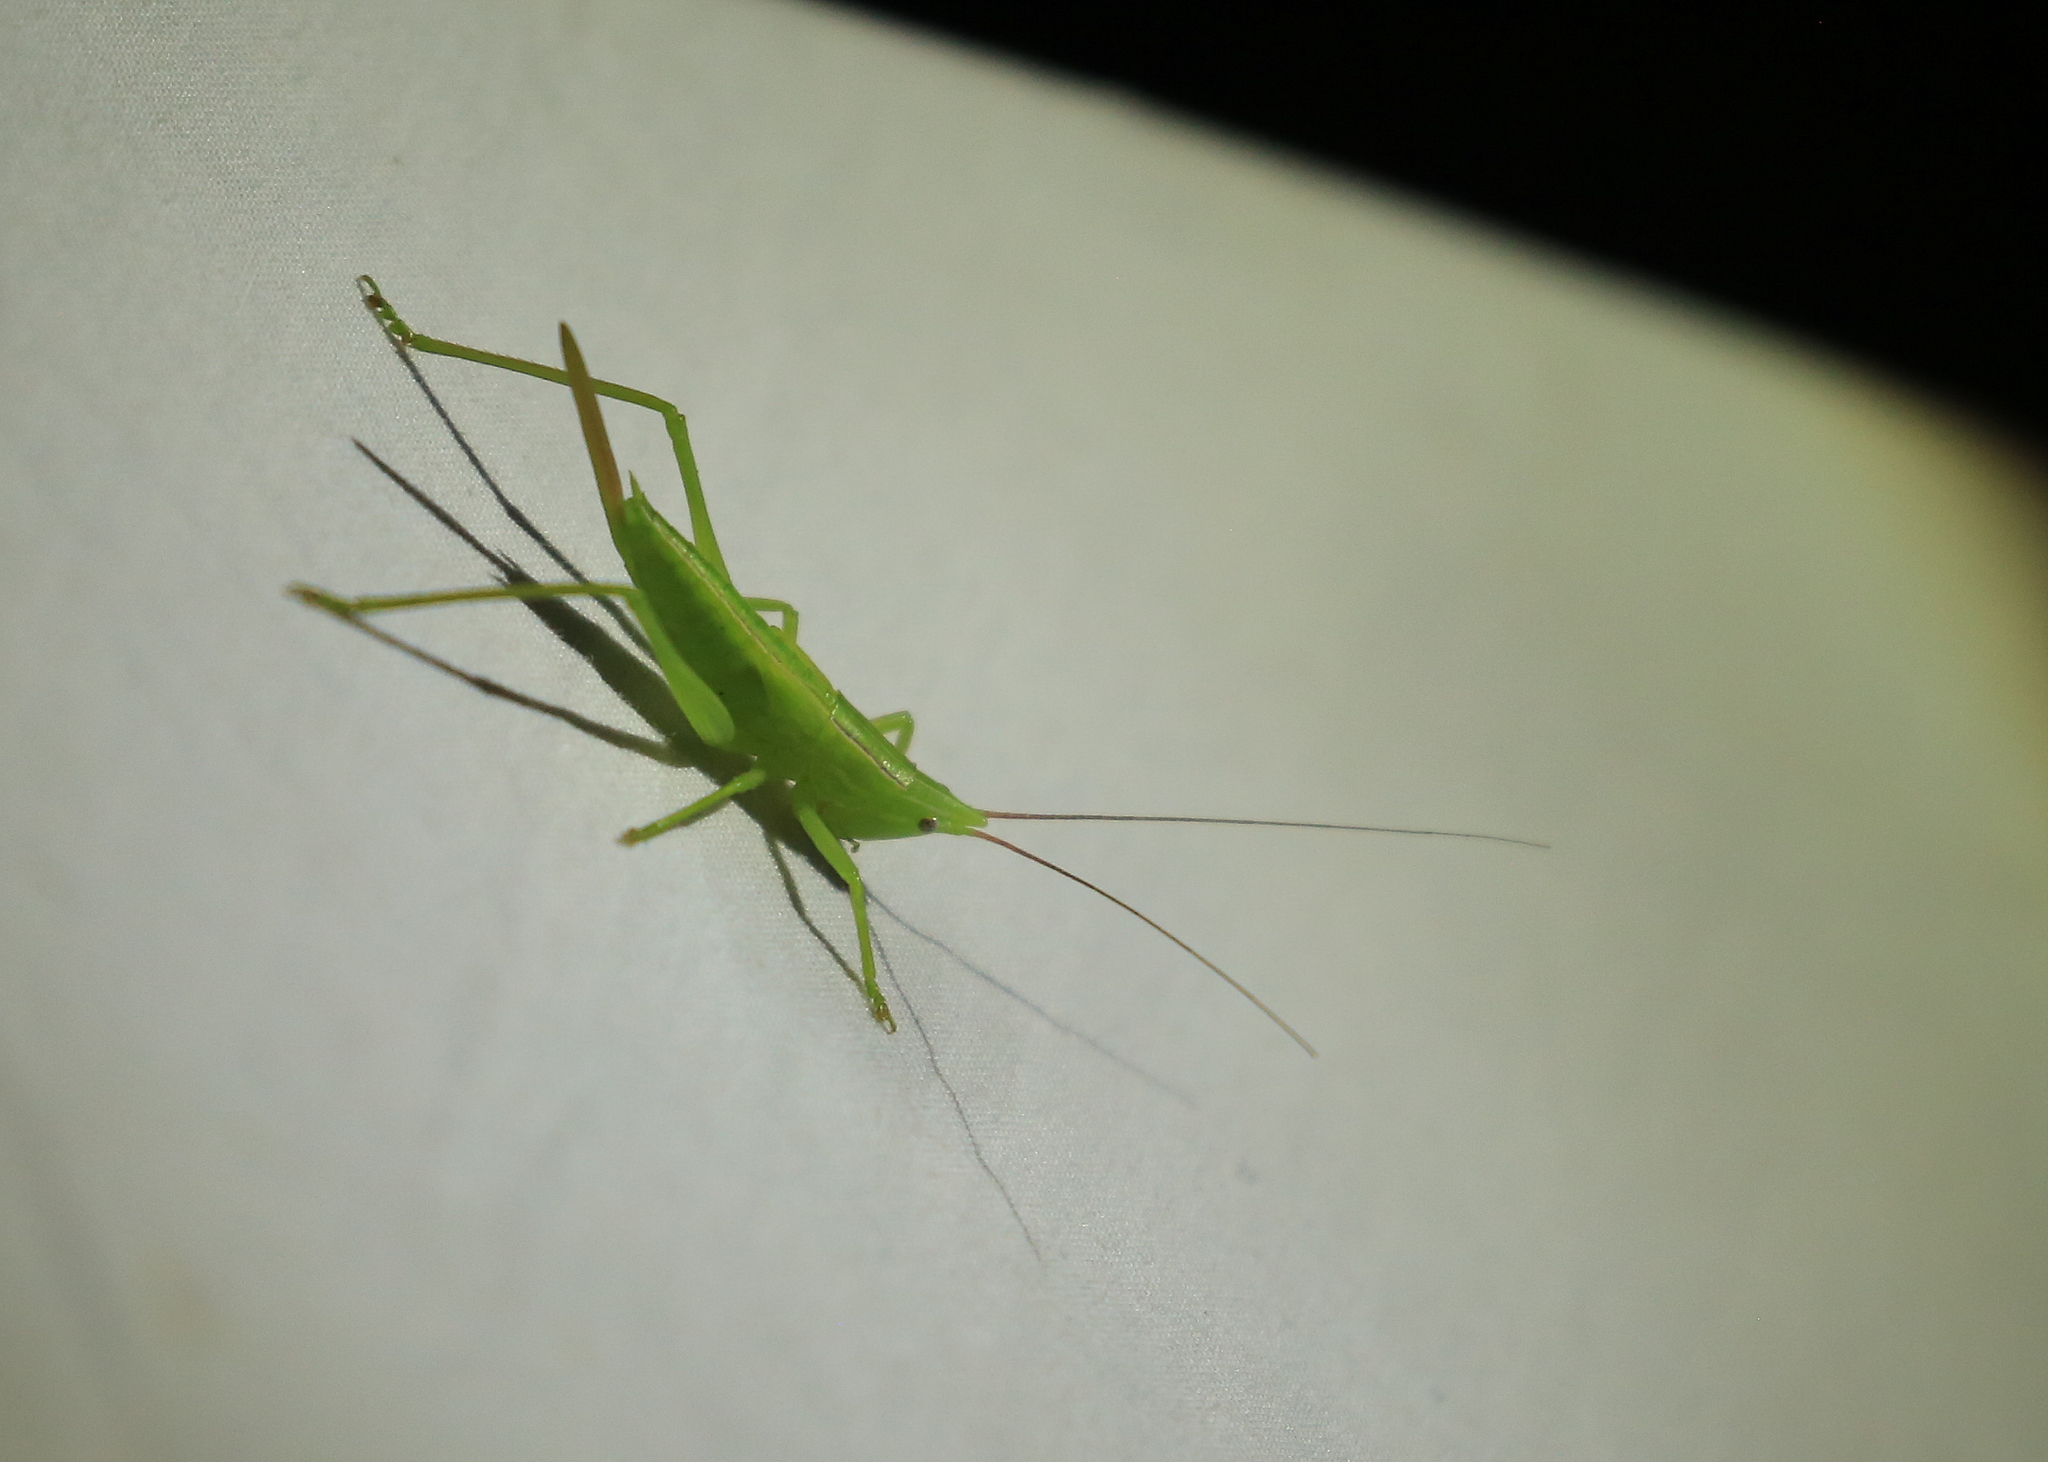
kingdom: Animalia
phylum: Arthropoda
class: Insecta
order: Orthoptera
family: Tettigoniidae
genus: Neoconocephalus
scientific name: Neoconocephalus ensiger
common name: Swordbearer
